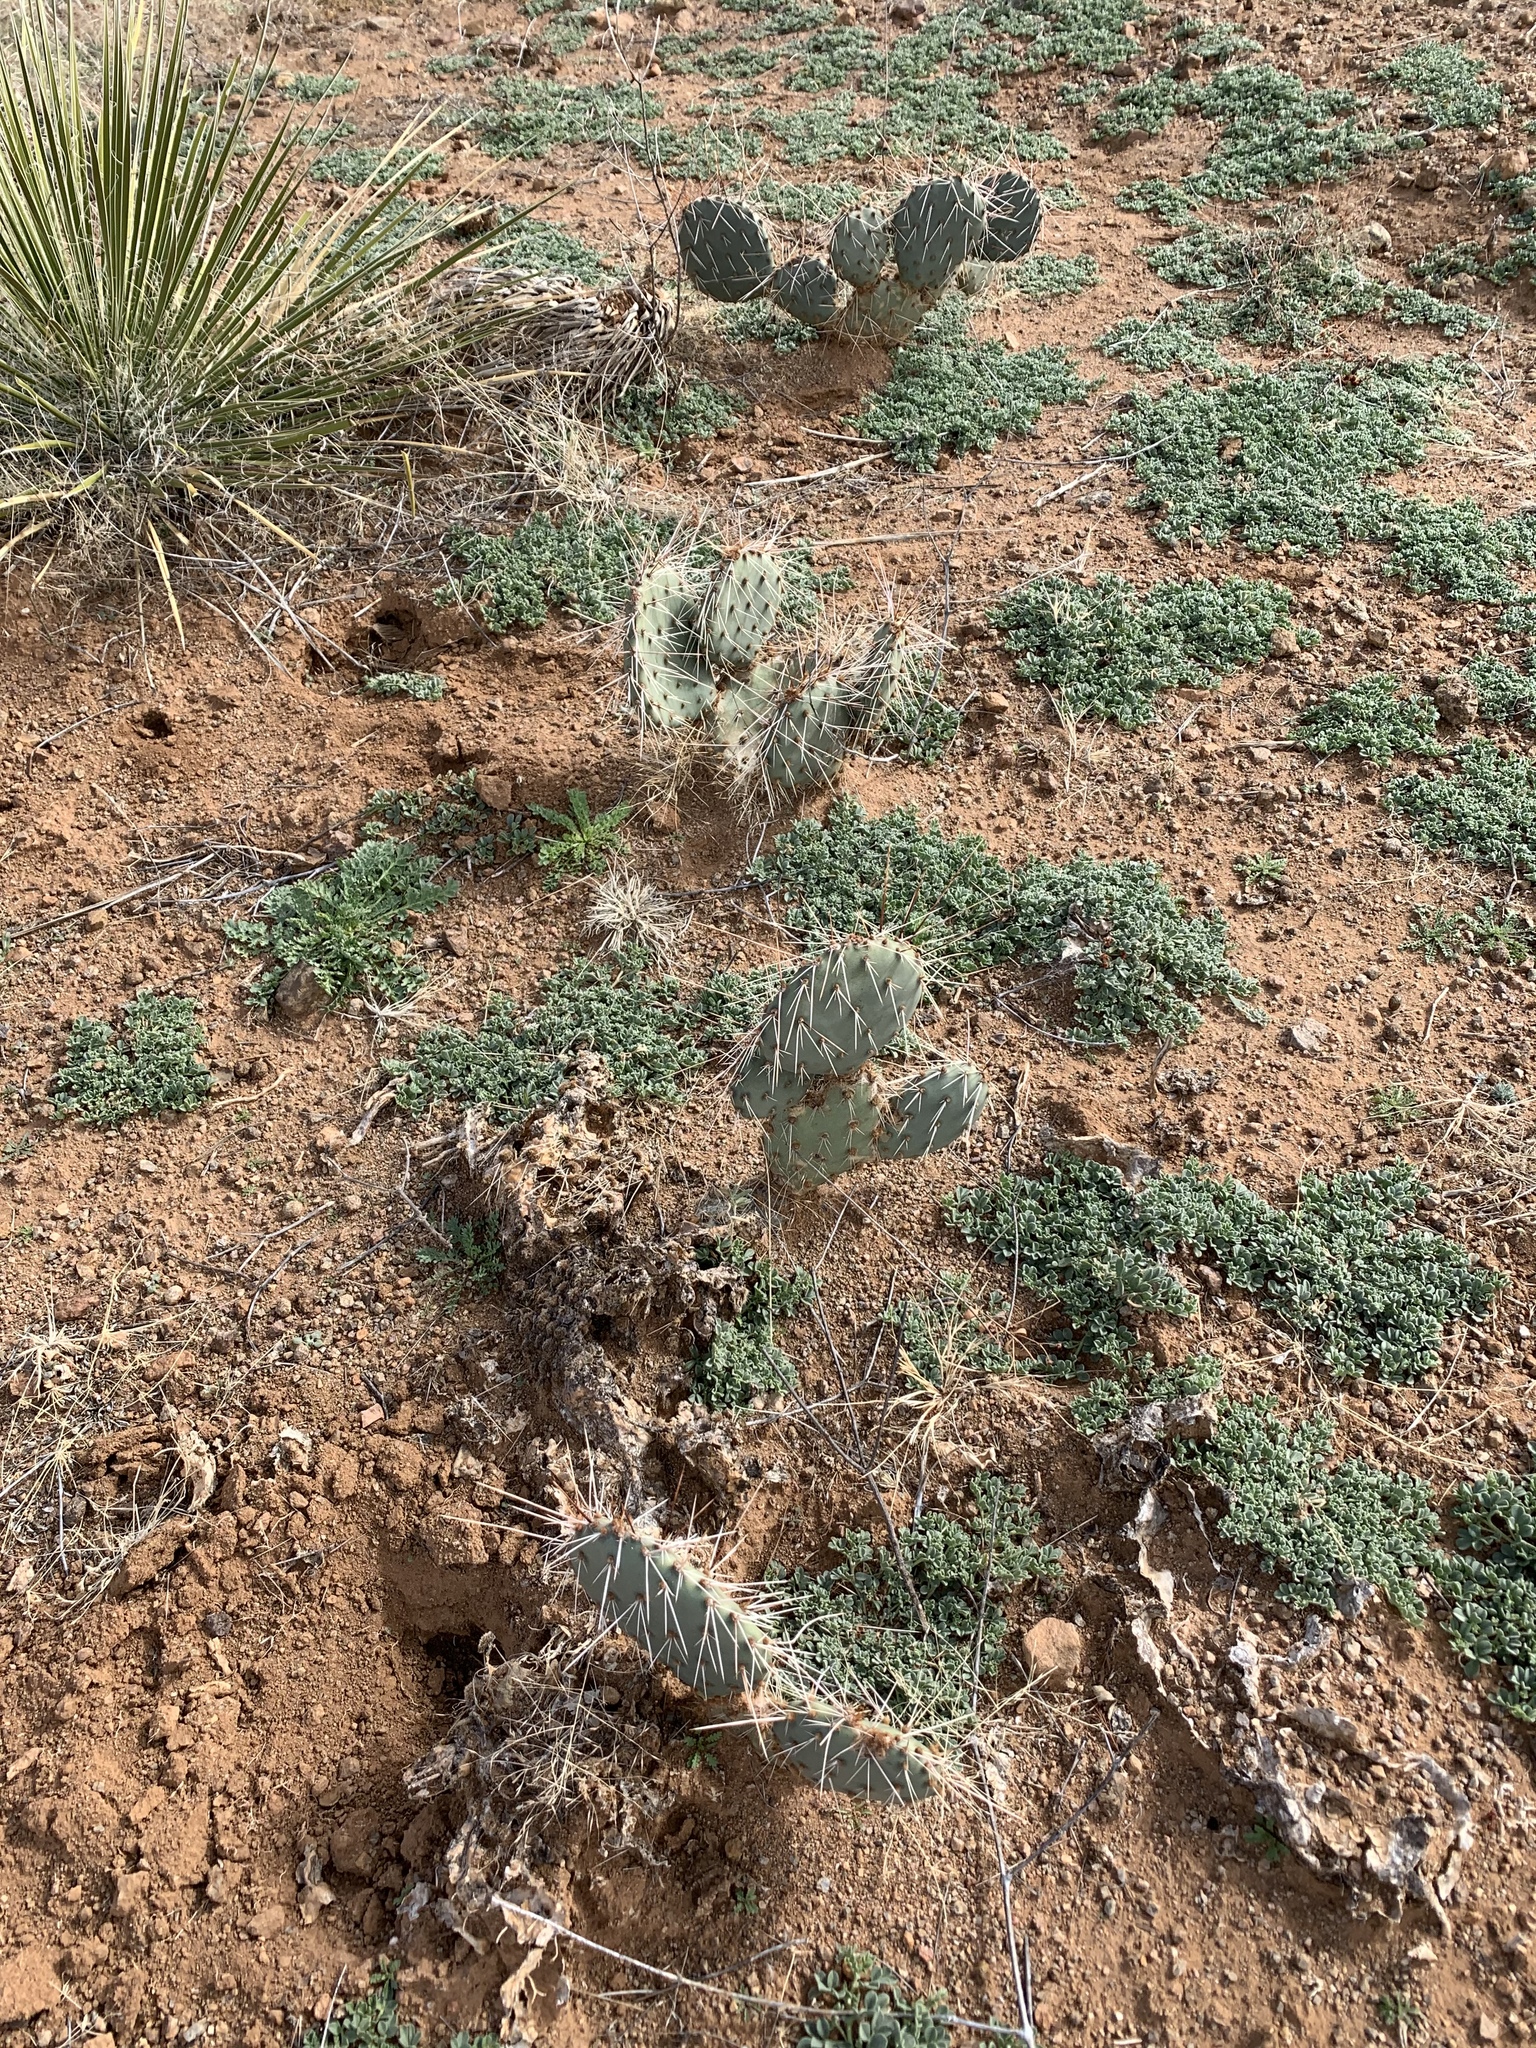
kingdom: Plantae
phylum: Tracheophyta
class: Magnoliopsida
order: Caryophyllales
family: Cactaceae
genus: Opuntia
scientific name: Opuntia macrorhiza
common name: Grassland pricklypear
